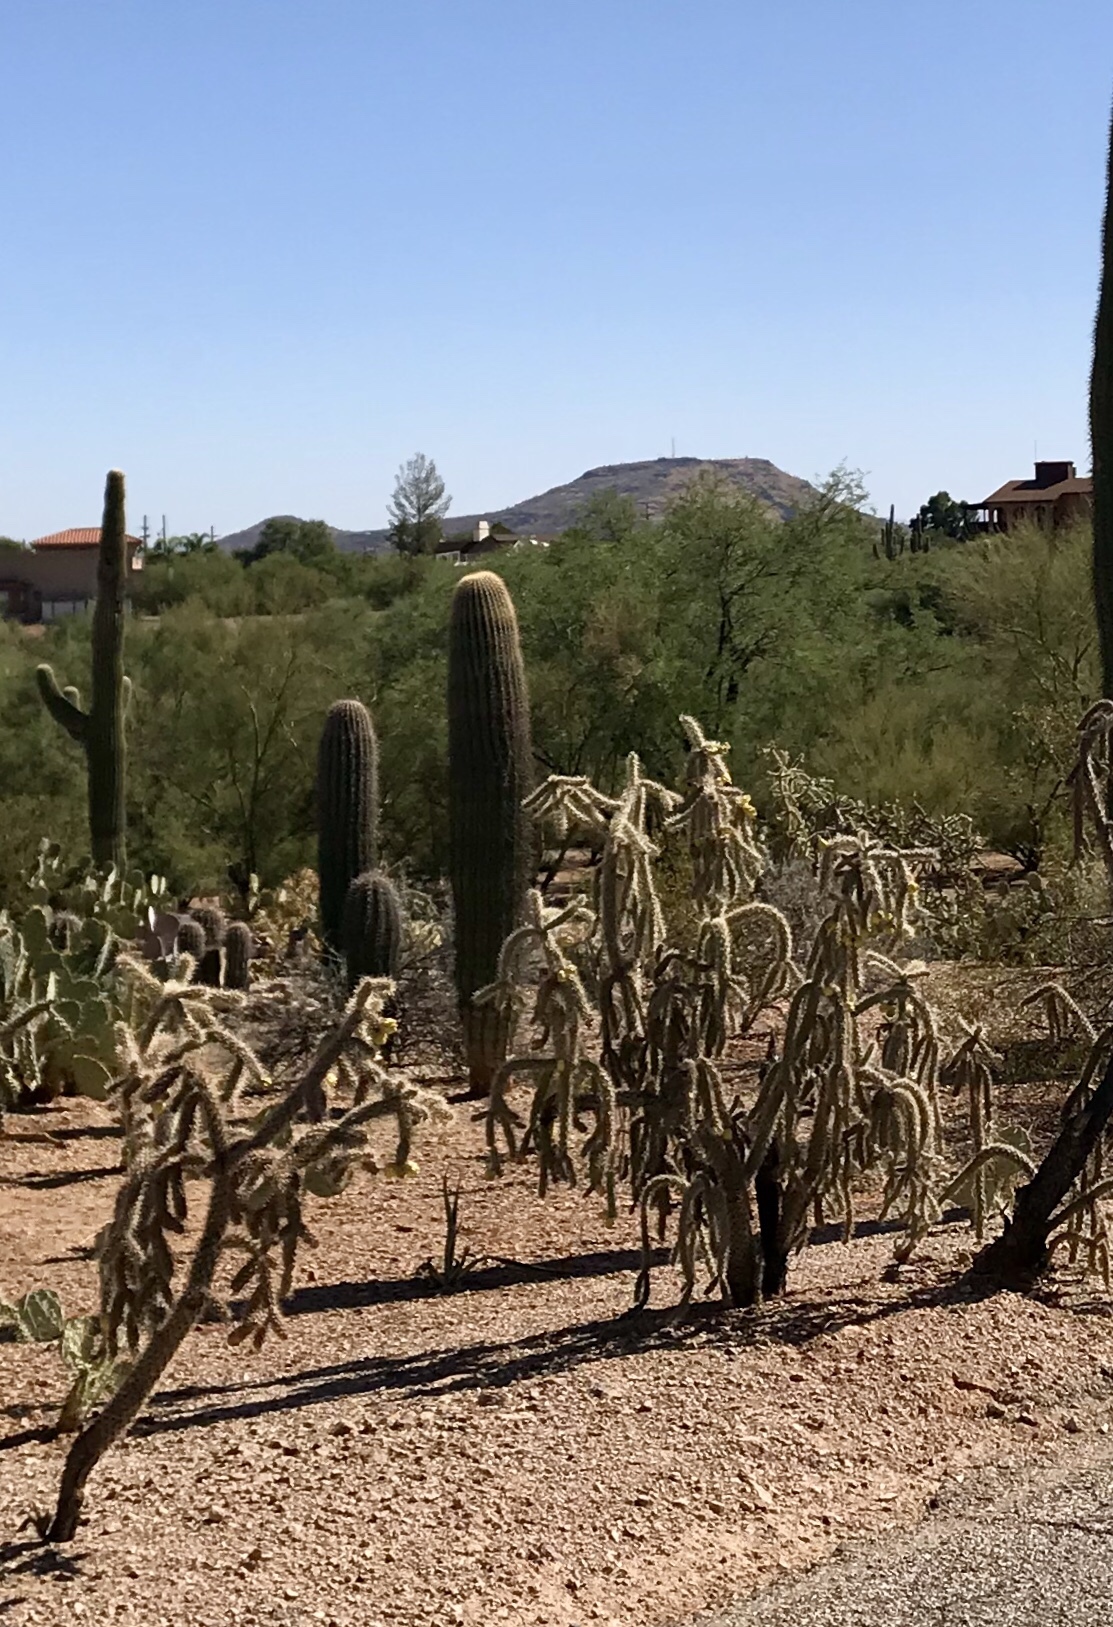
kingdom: Plantae
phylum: Tracheophyta
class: Magnoliopsida
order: Caryophyllales
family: Cactaceae
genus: Cylindropuntia
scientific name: Cylindropuntia acanthocarpa
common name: Buckhorn cholla
